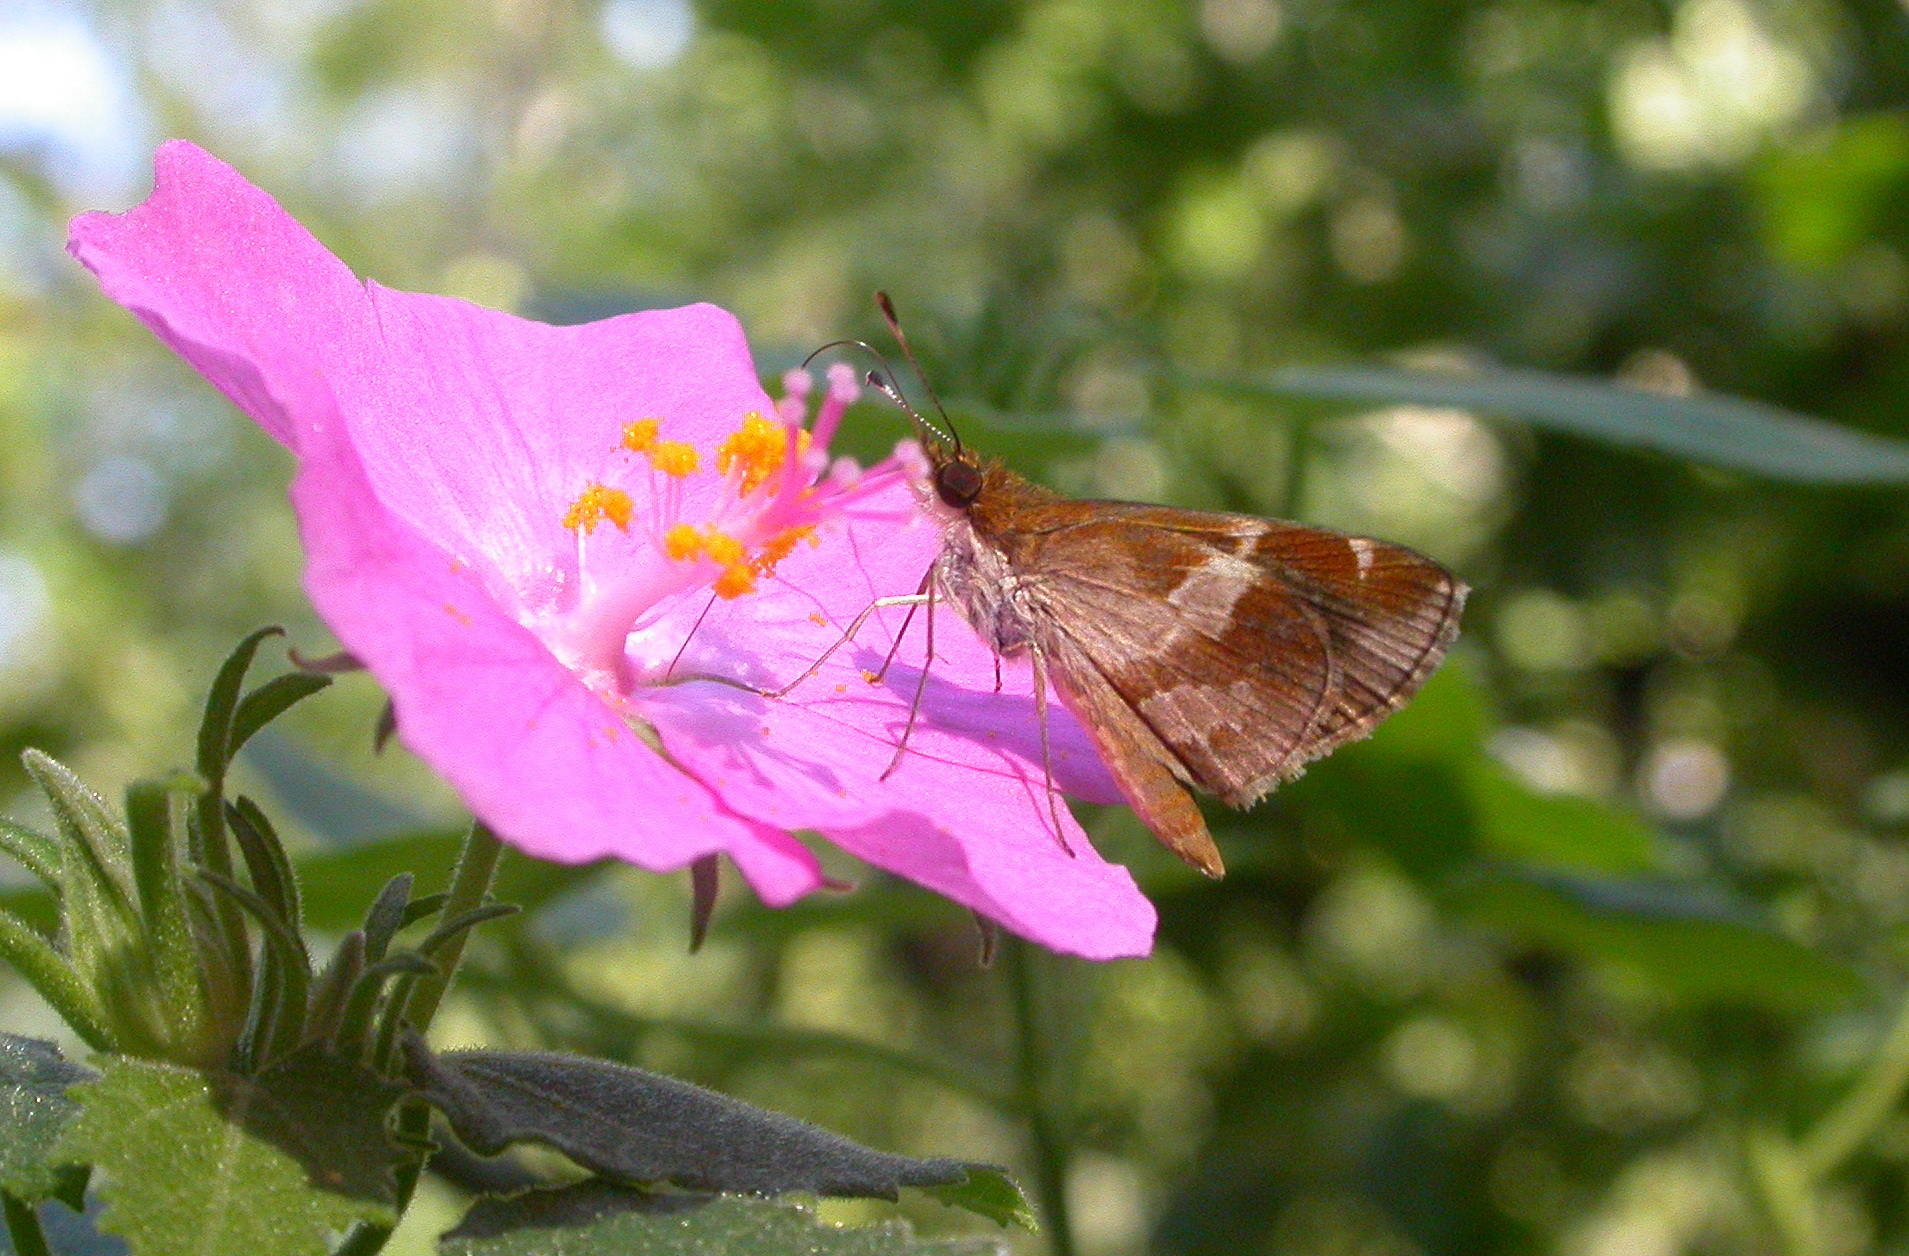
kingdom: Animalia
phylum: Arthropoda
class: Insecta
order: Lepidoptera
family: Hesperiidae
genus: Moeris
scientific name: Moeris crispinus
